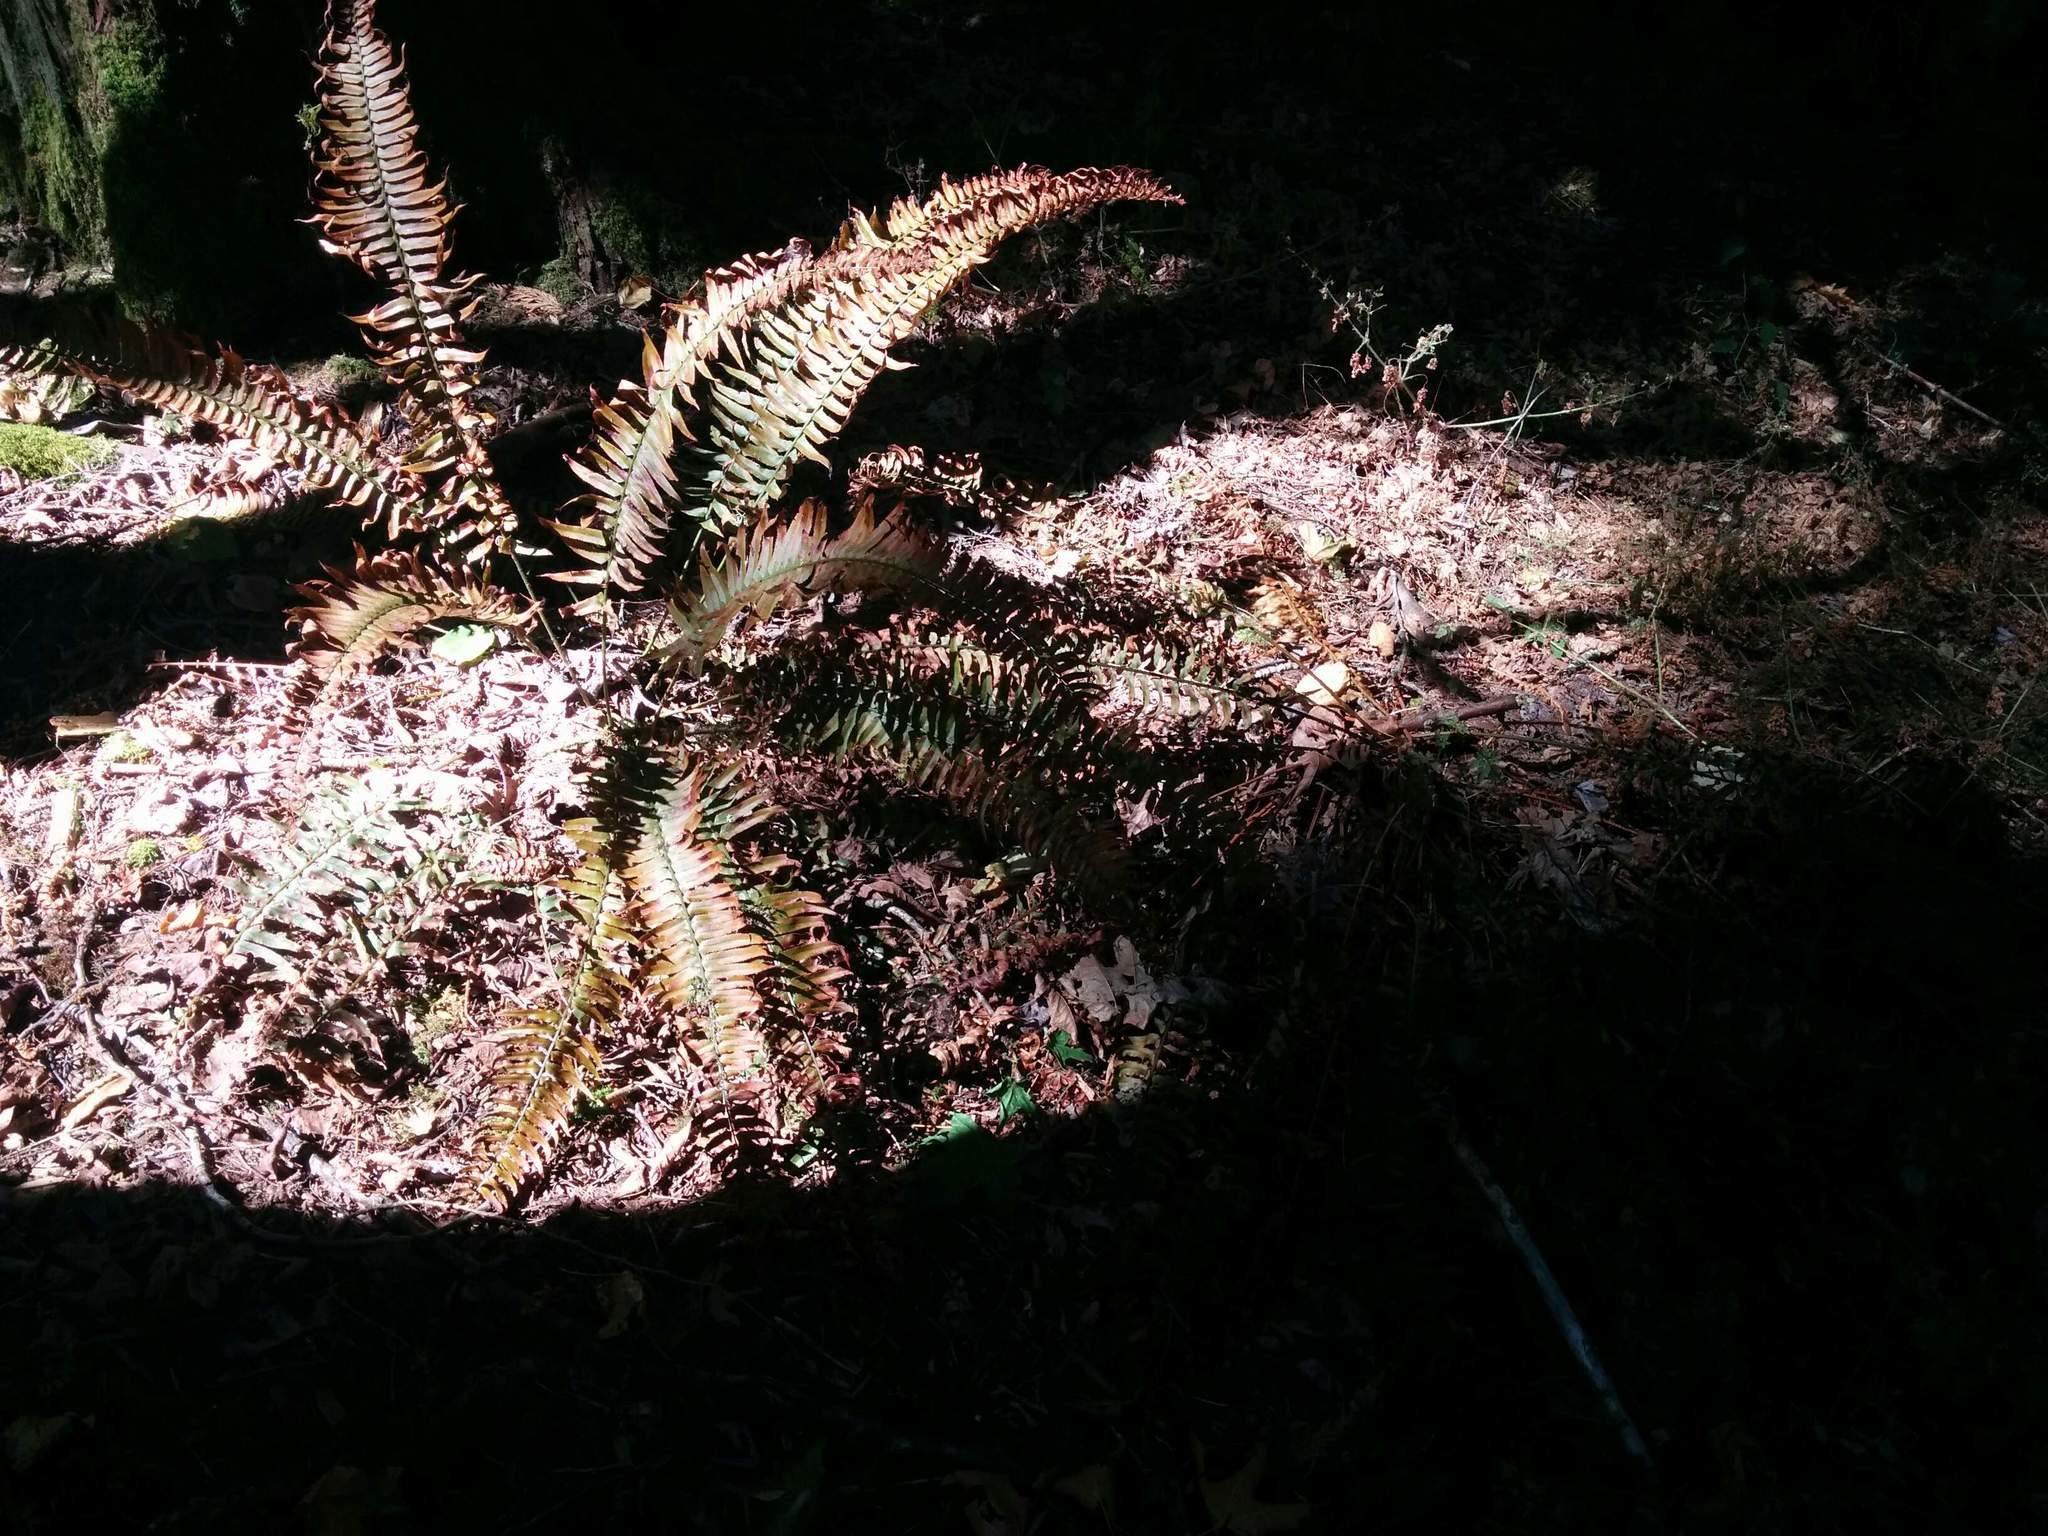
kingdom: Plantae
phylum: Tracheophyta
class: Polypodiopsida
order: Polypodiales
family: Dryopteridaceae
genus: Polystichum
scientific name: Polystichum munitum
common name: Western sword-fern
